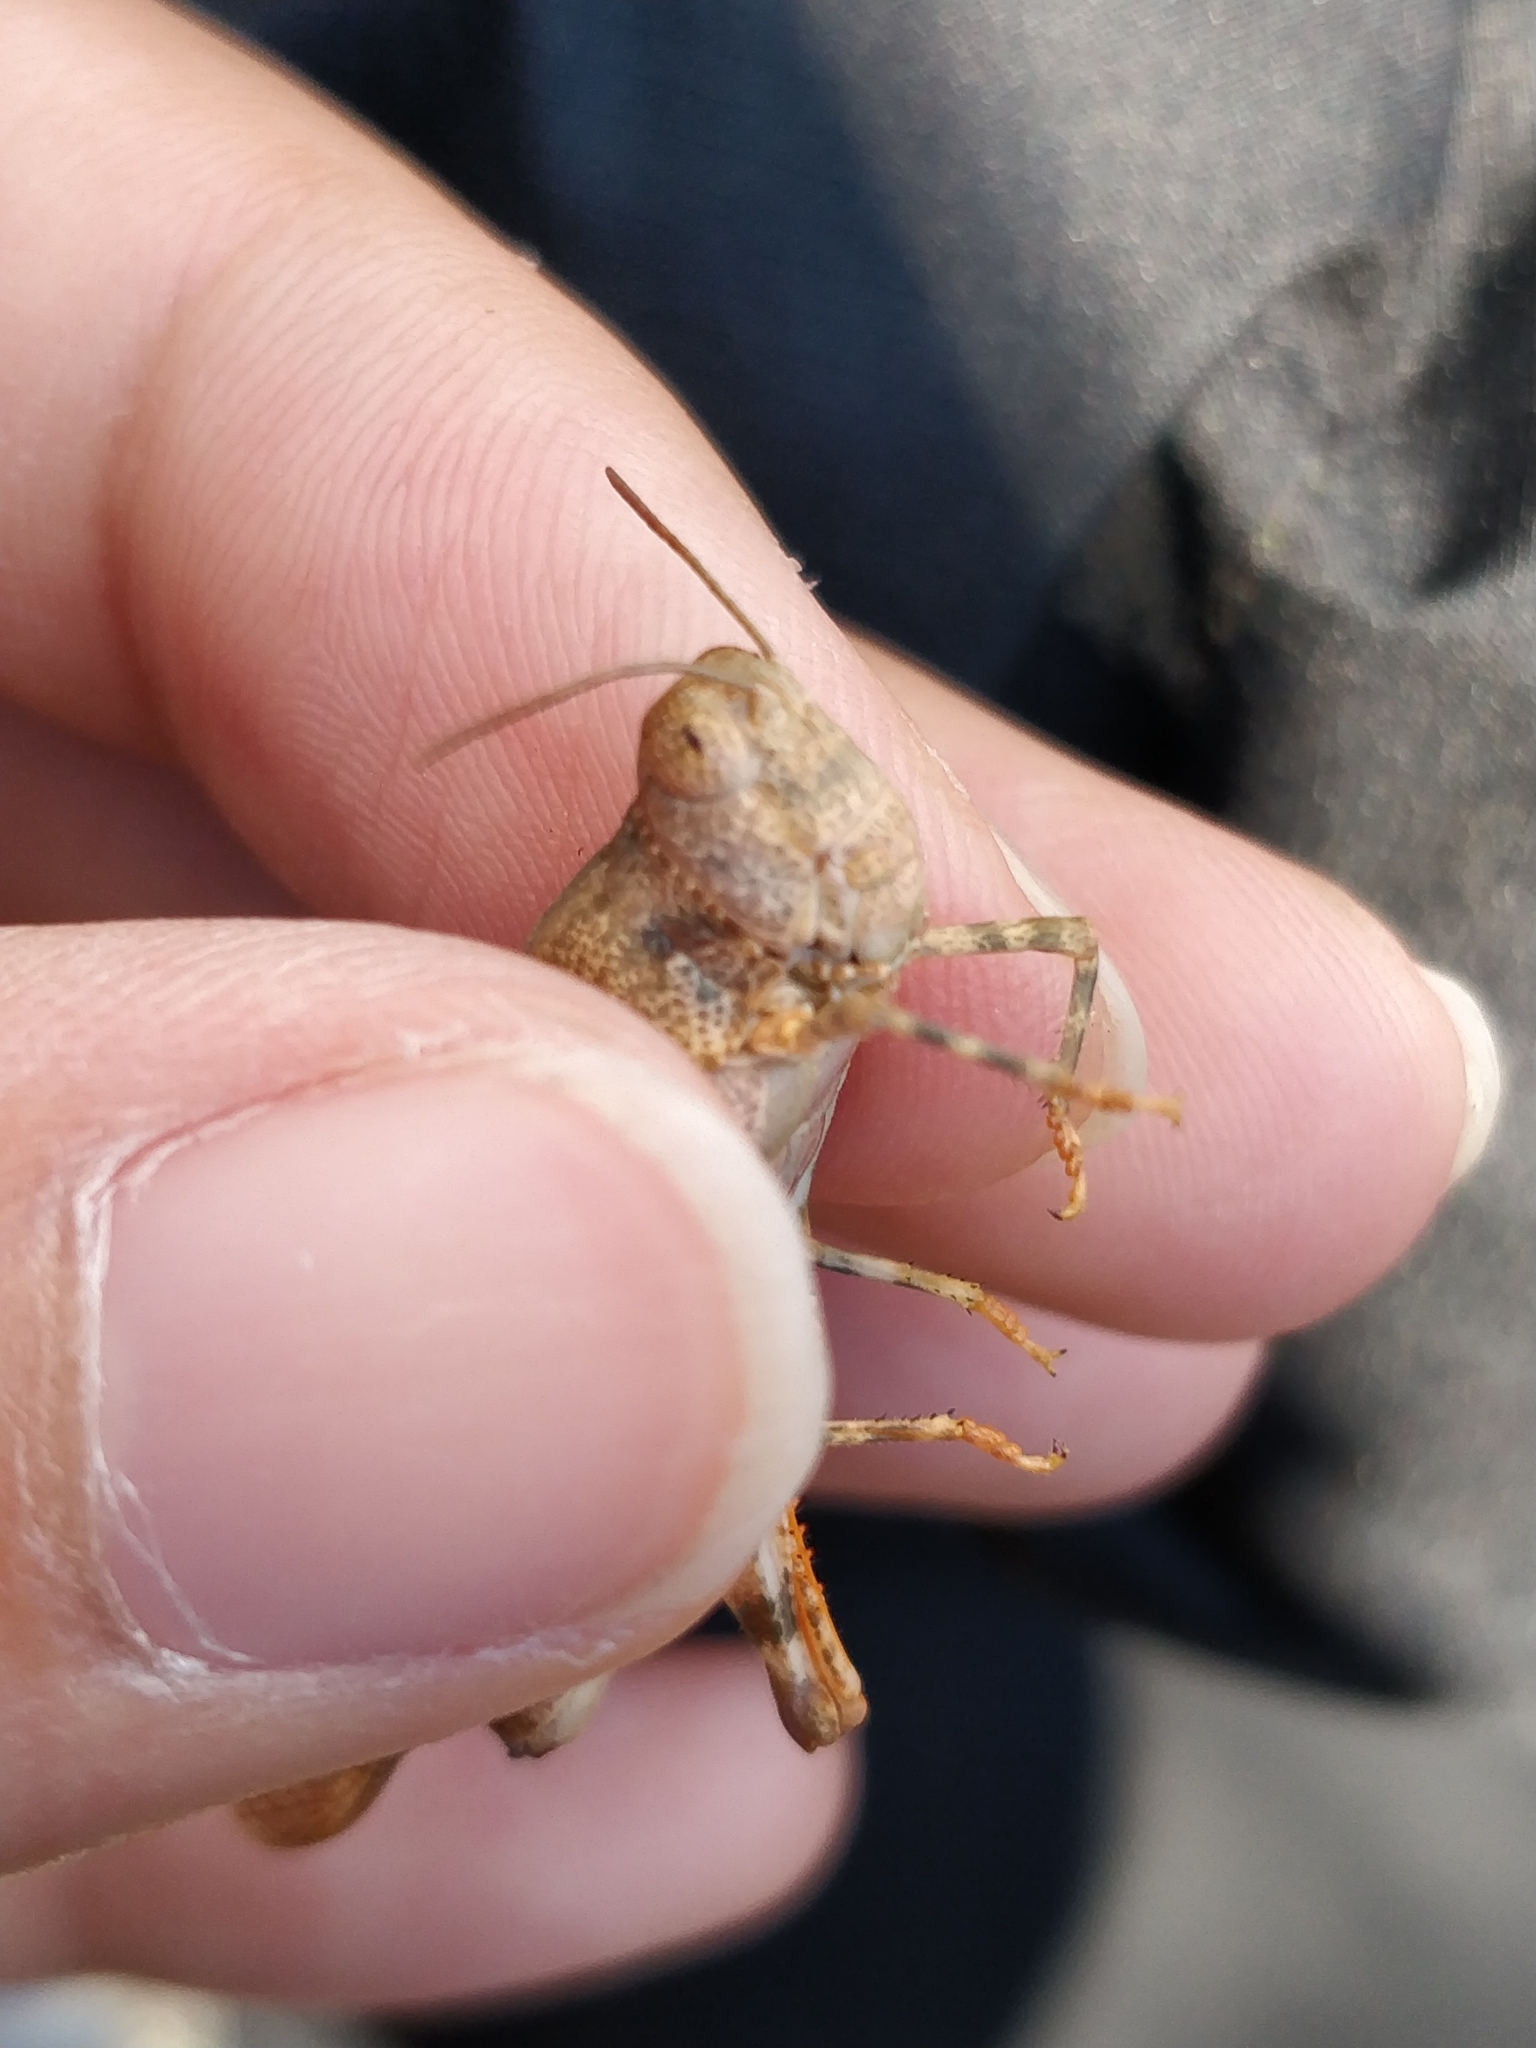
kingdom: Animalia
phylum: Arthropoda
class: Insecta
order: Orthoptera
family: Acrididae
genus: Sphingonotus
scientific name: Sphingonotus erythropterus
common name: Australian sphingonotus
